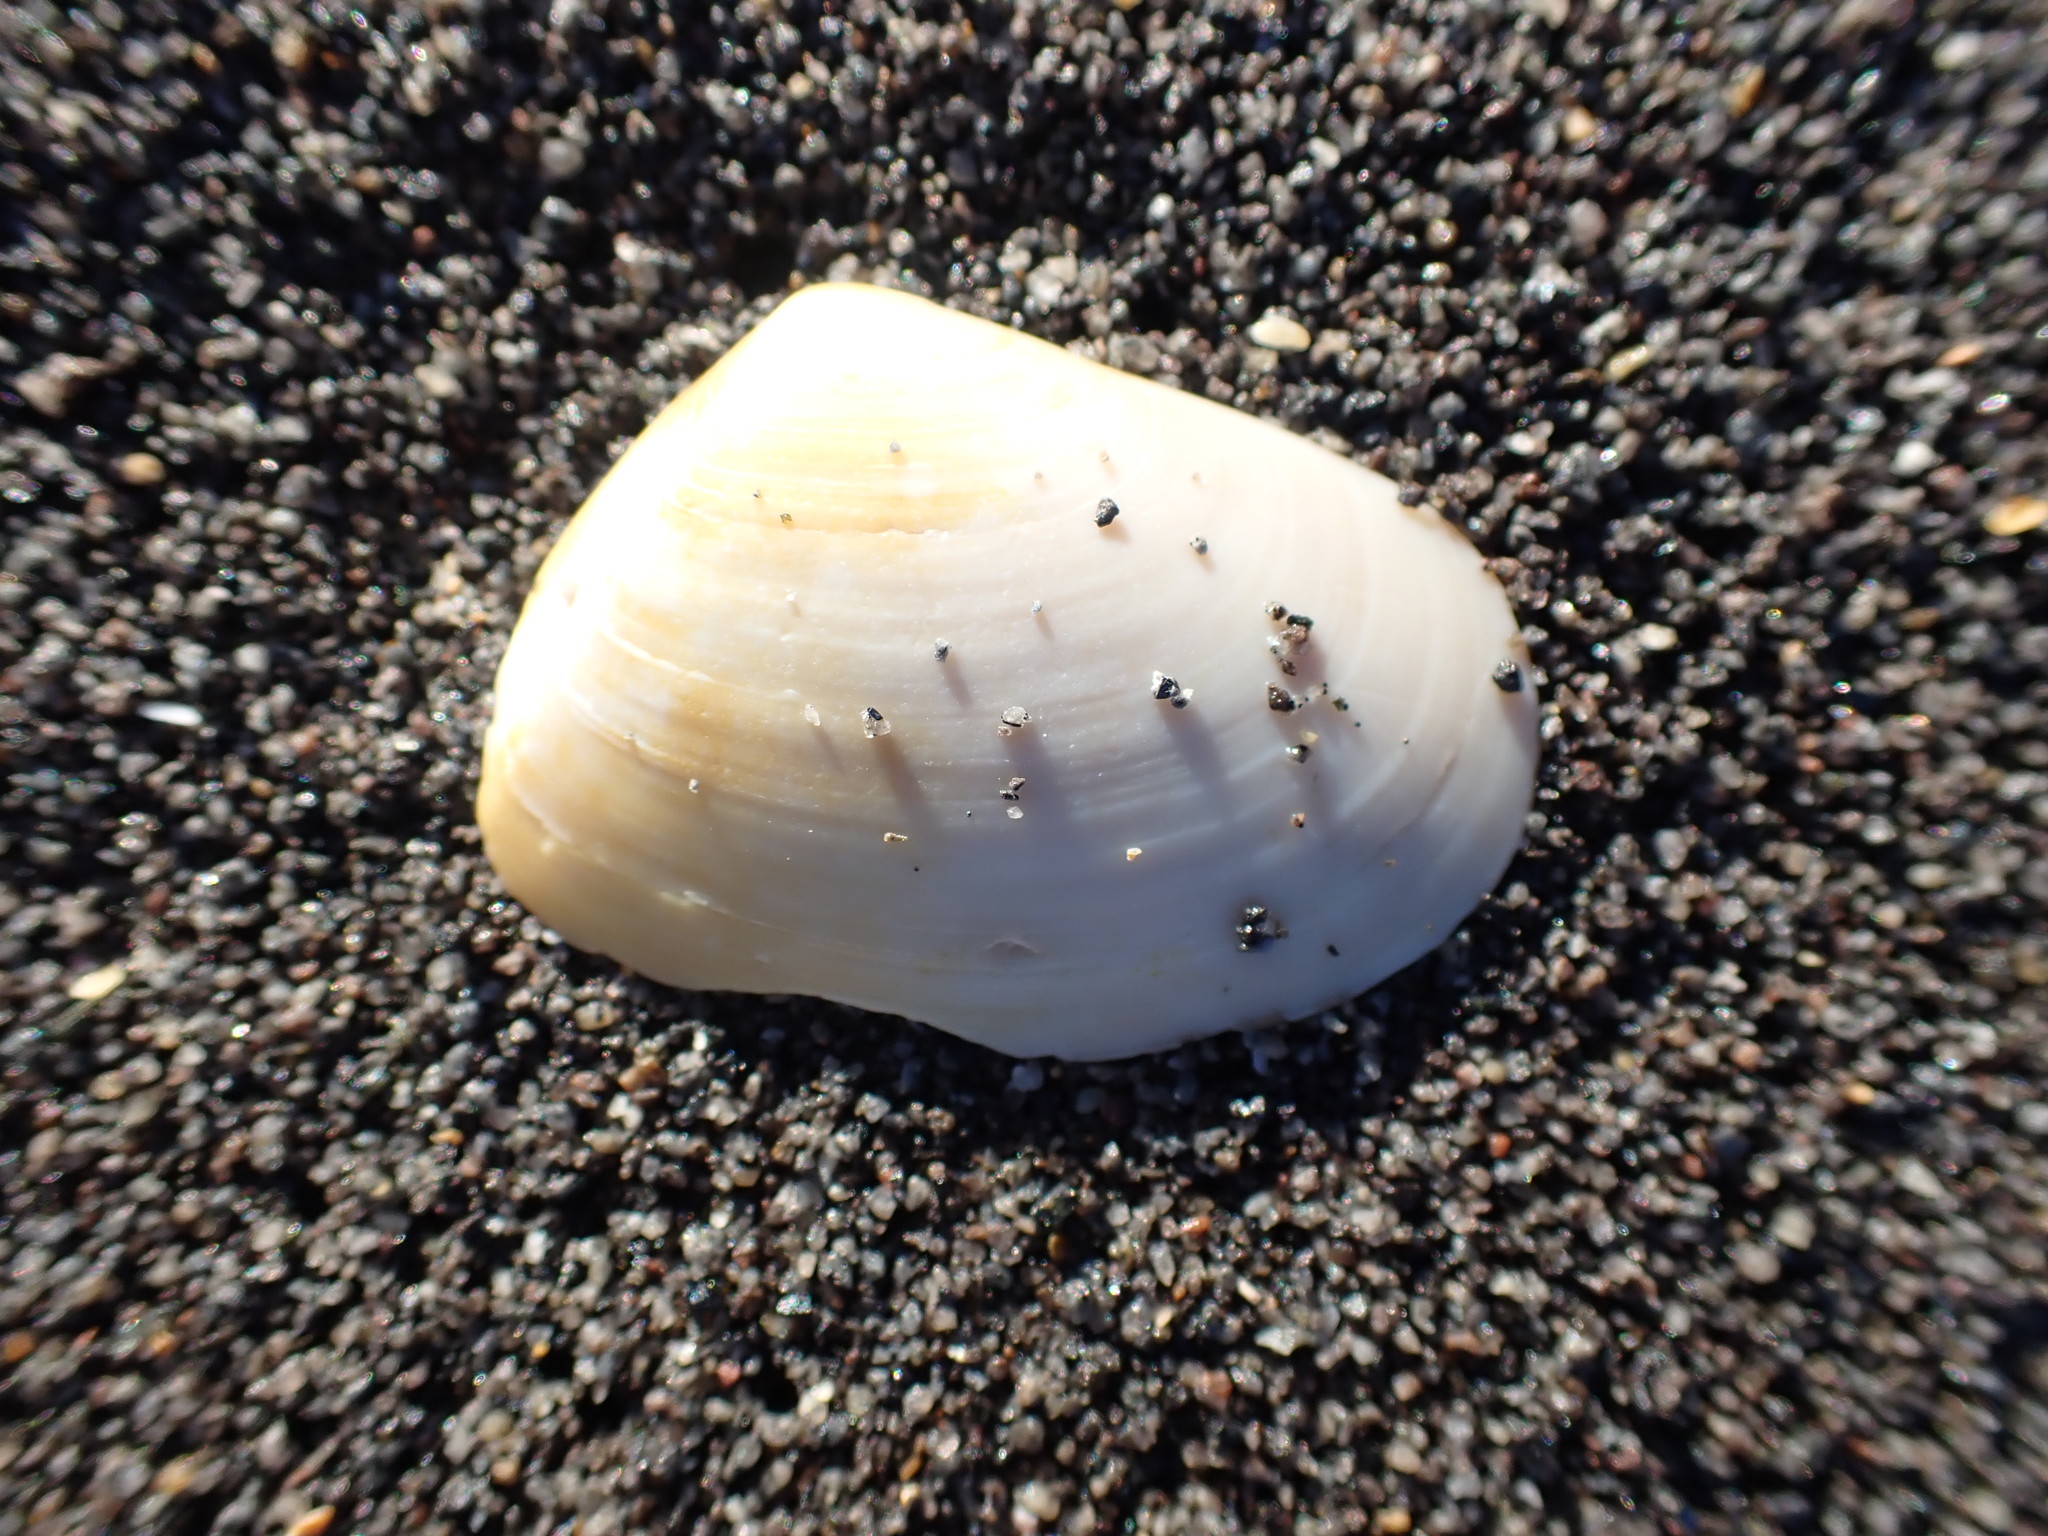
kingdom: Animalia
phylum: Mollusca
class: Bivalvia
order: Venerida
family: Mesodesmatidae
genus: Paphies
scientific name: Paphies ventricosa
